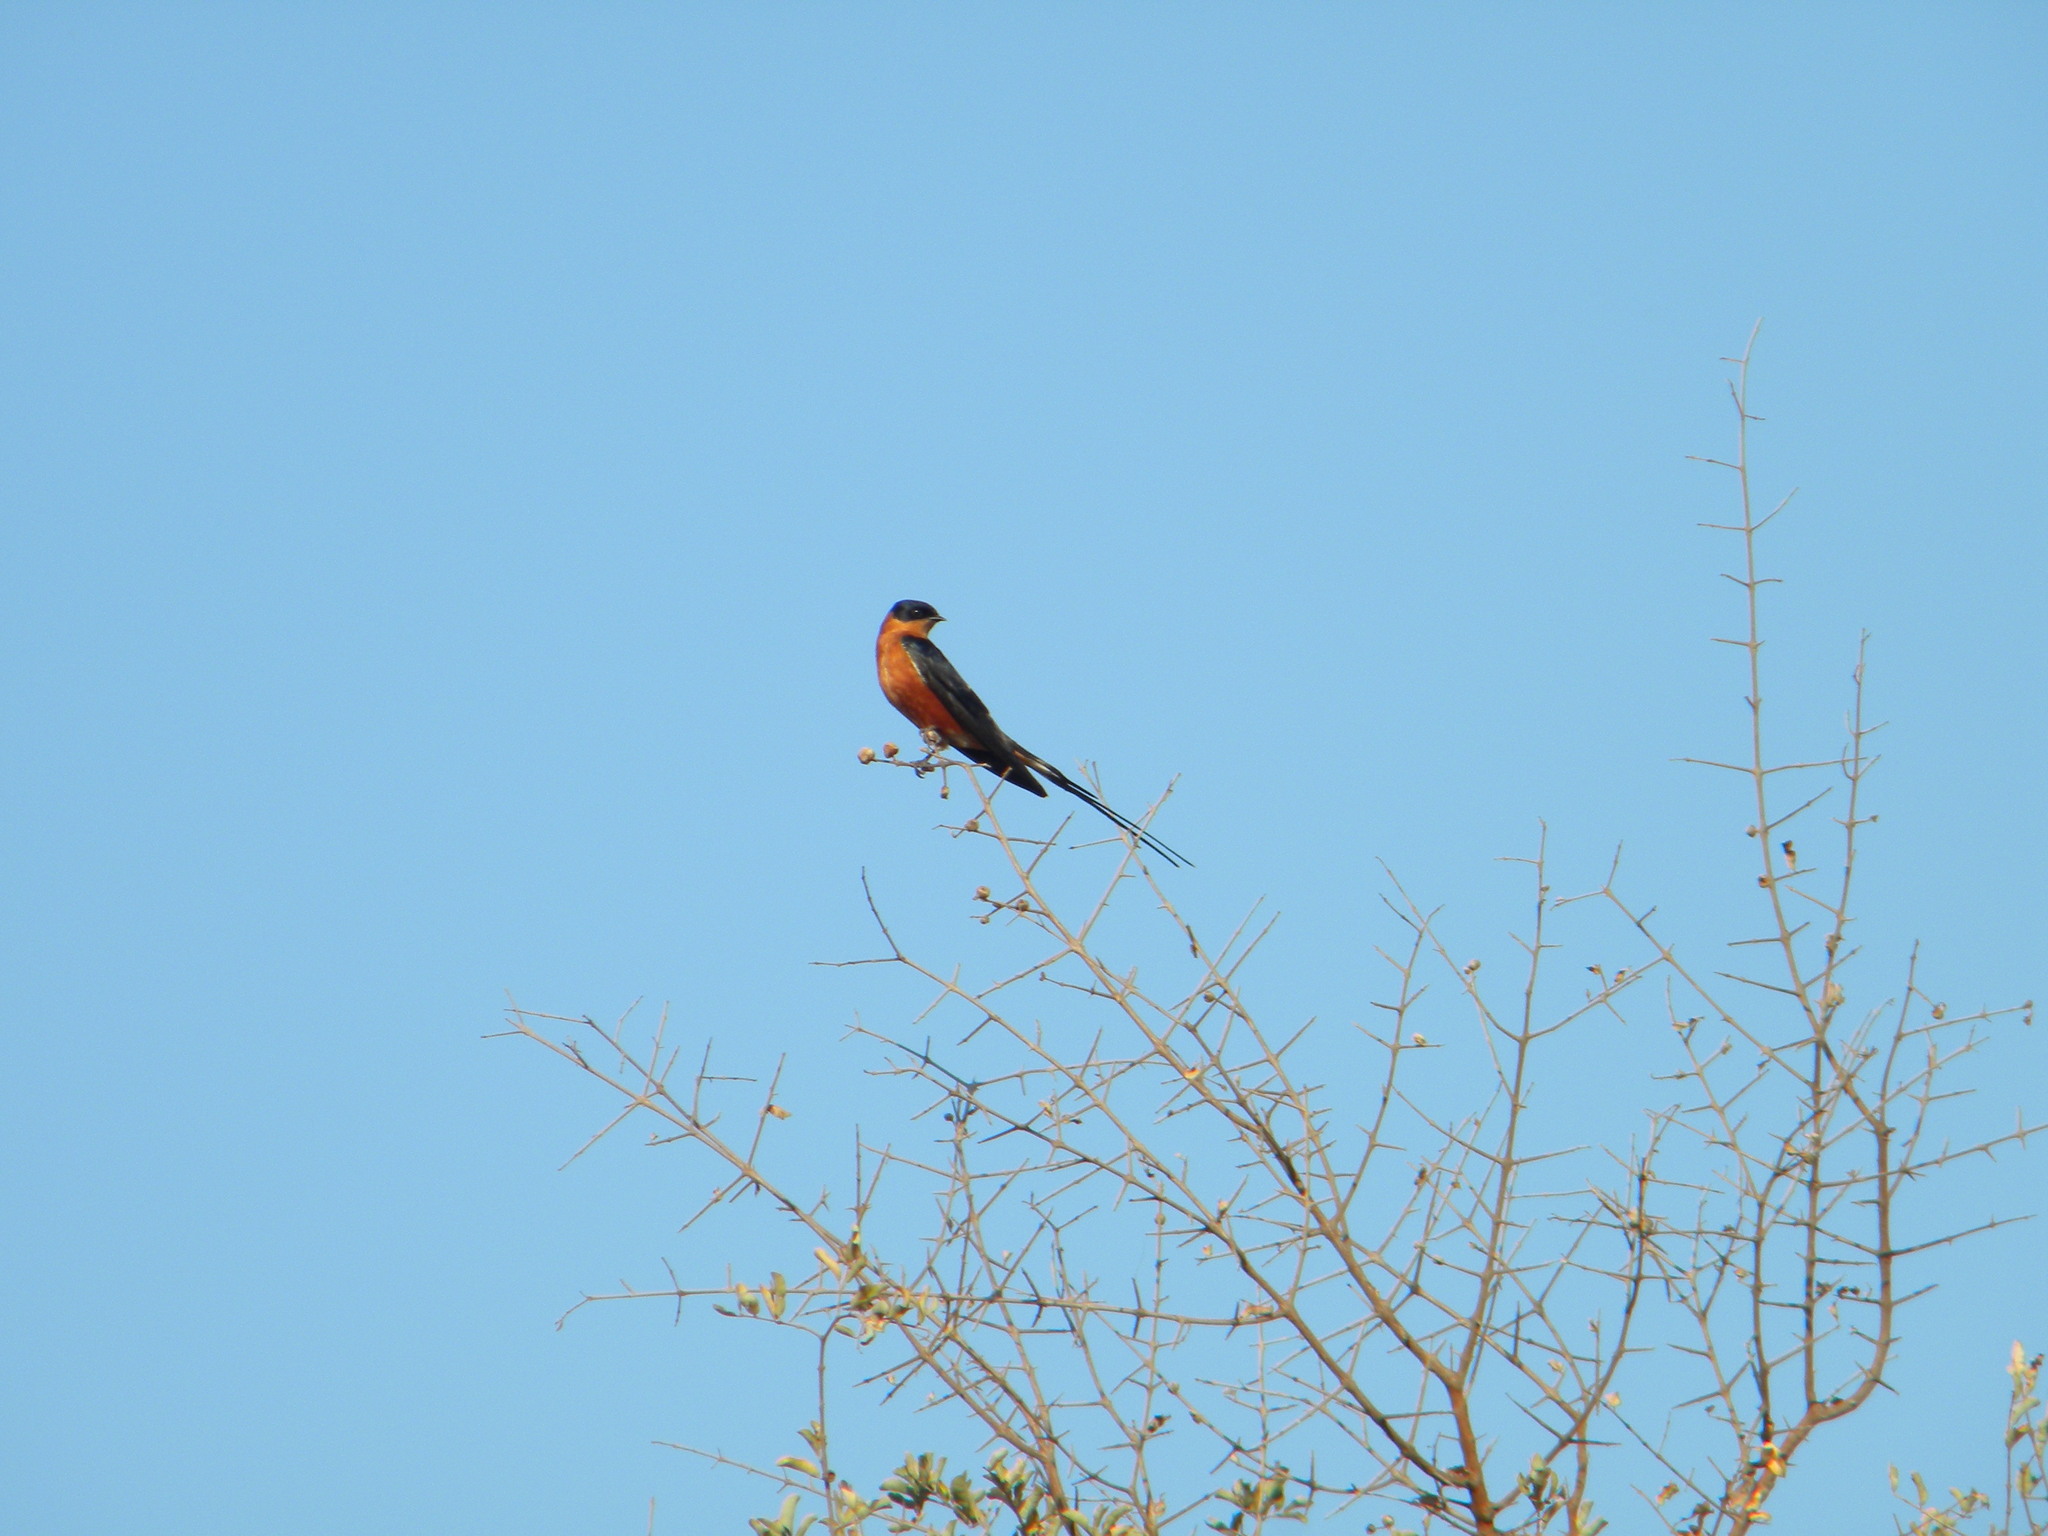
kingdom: Animalia
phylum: Chordata
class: Aves
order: Passeriformes
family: Hirundinidae
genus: Cecropis
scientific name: Cecropis semirufa
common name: Red-breasted swallow
